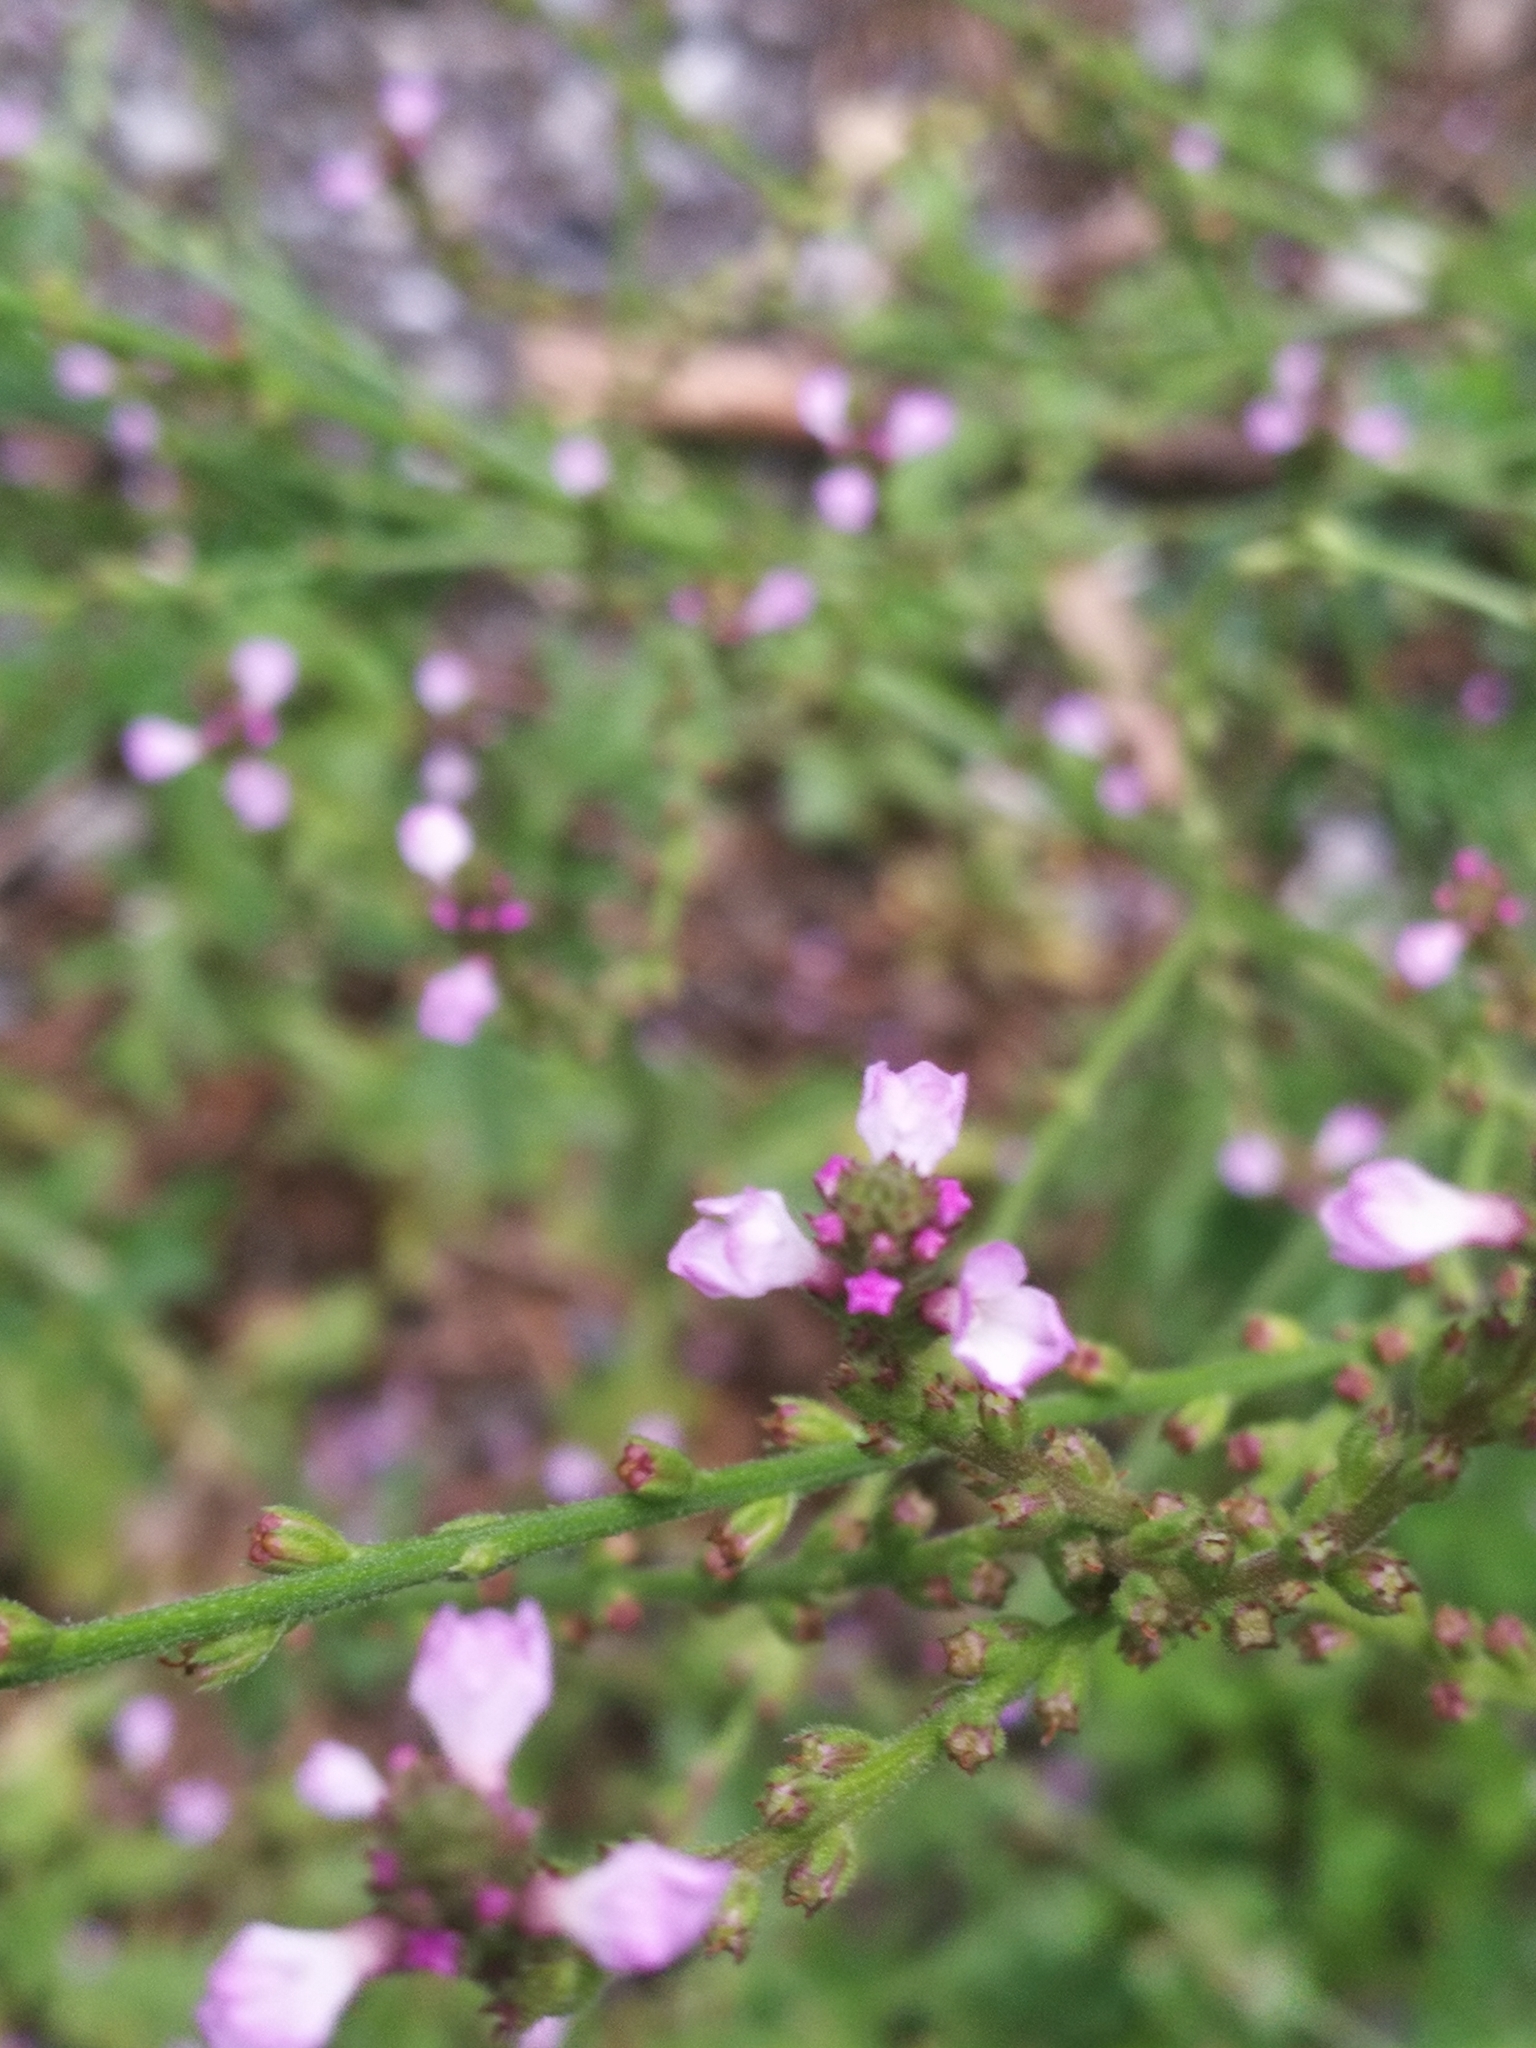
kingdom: Plantae
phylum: Tracheophyta
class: Magnoliopsida
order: Lamiales
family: Verbenaceae
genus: Verbena
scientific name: Verbena officinalis
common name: Vervain
